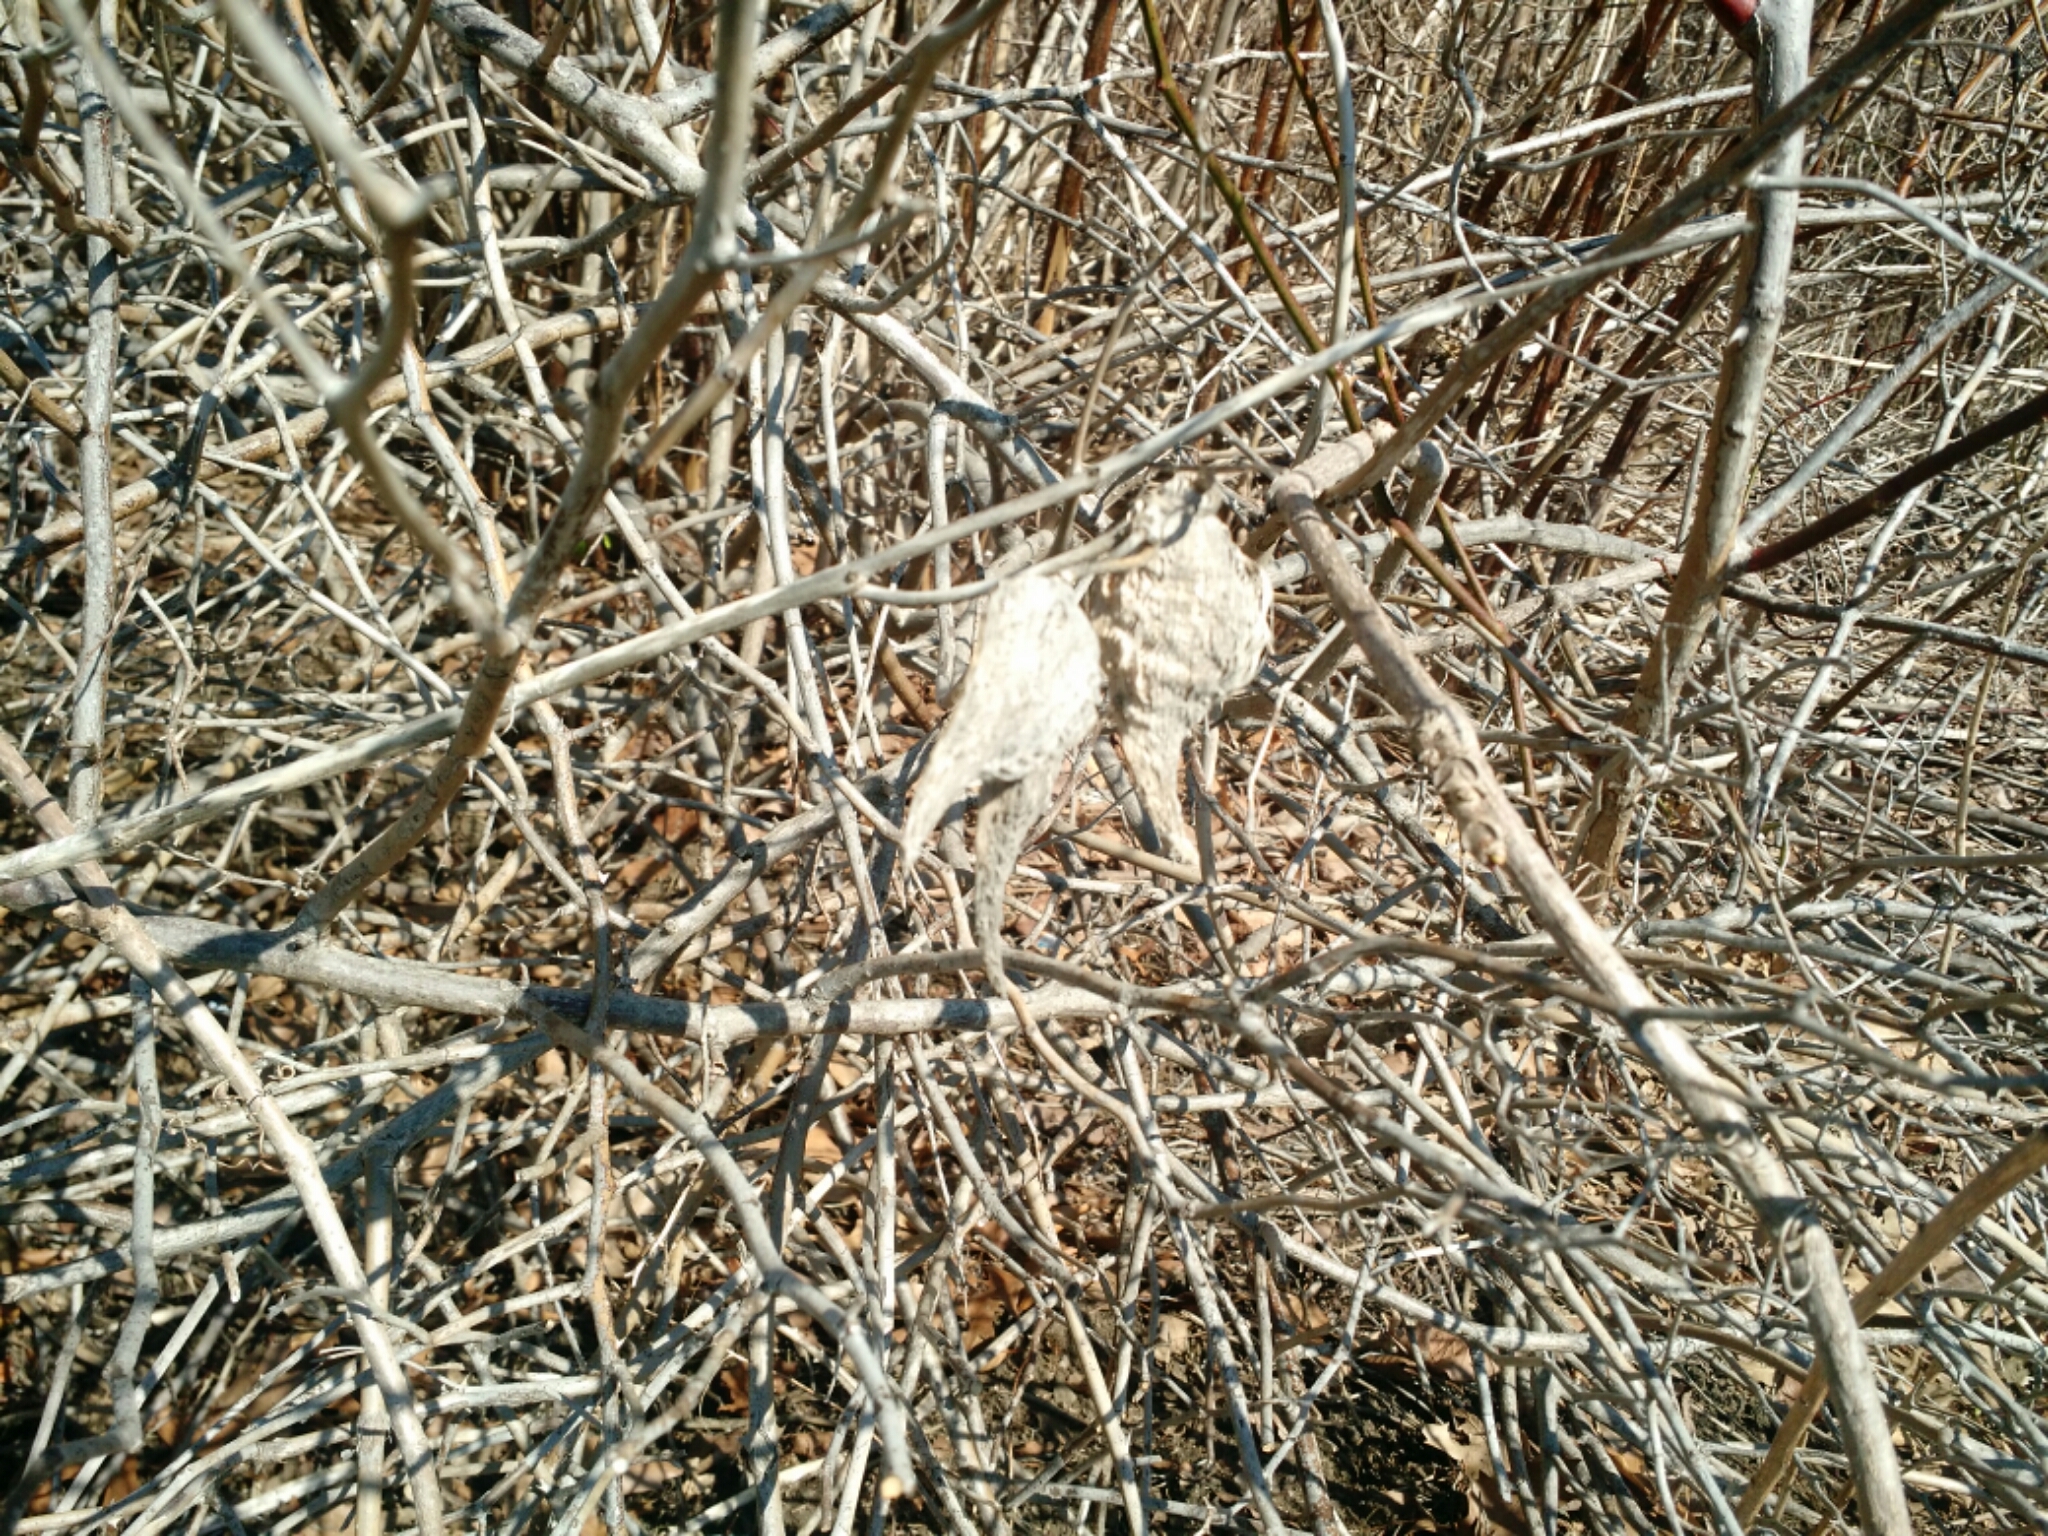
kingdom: Plantae
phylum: Tracheophyta
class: Magnoliopsida
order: Gentianales
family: Apocynaceae
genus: Asclepias
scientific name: Asclepias syriaca
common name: Common milkweed
